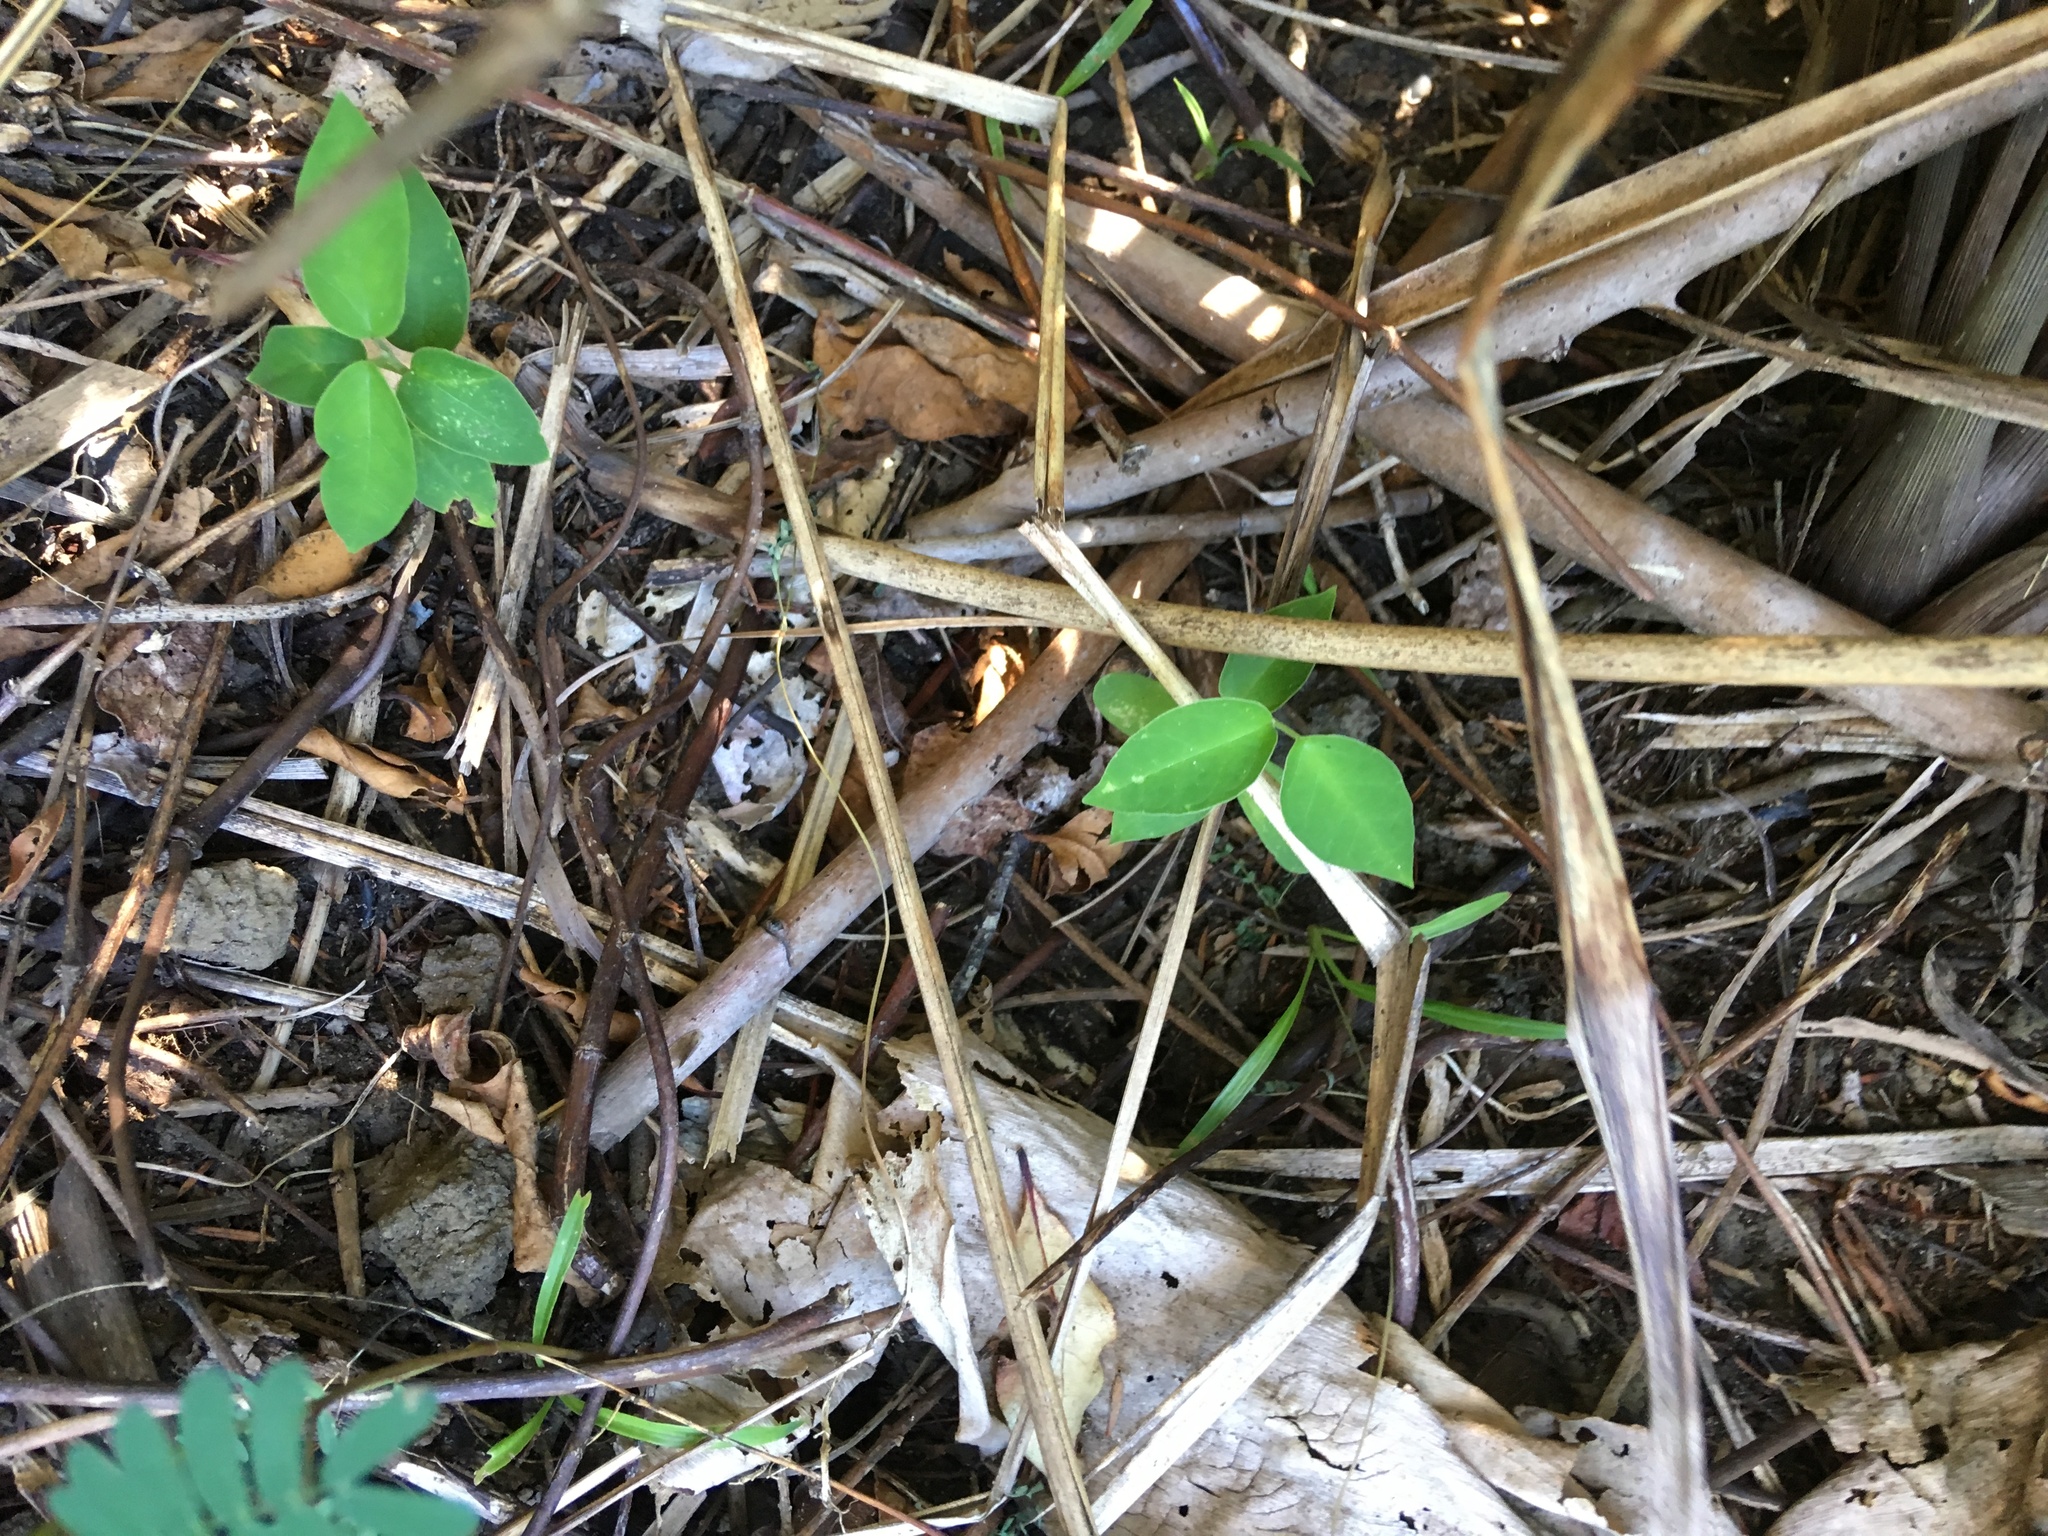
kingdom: Plantae
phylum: Tracheophyta
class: Magnoliopsida
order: Gentianales
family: Apocynaceae
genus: Araujia
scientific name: Araujia sericifera
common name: White bladderflower
